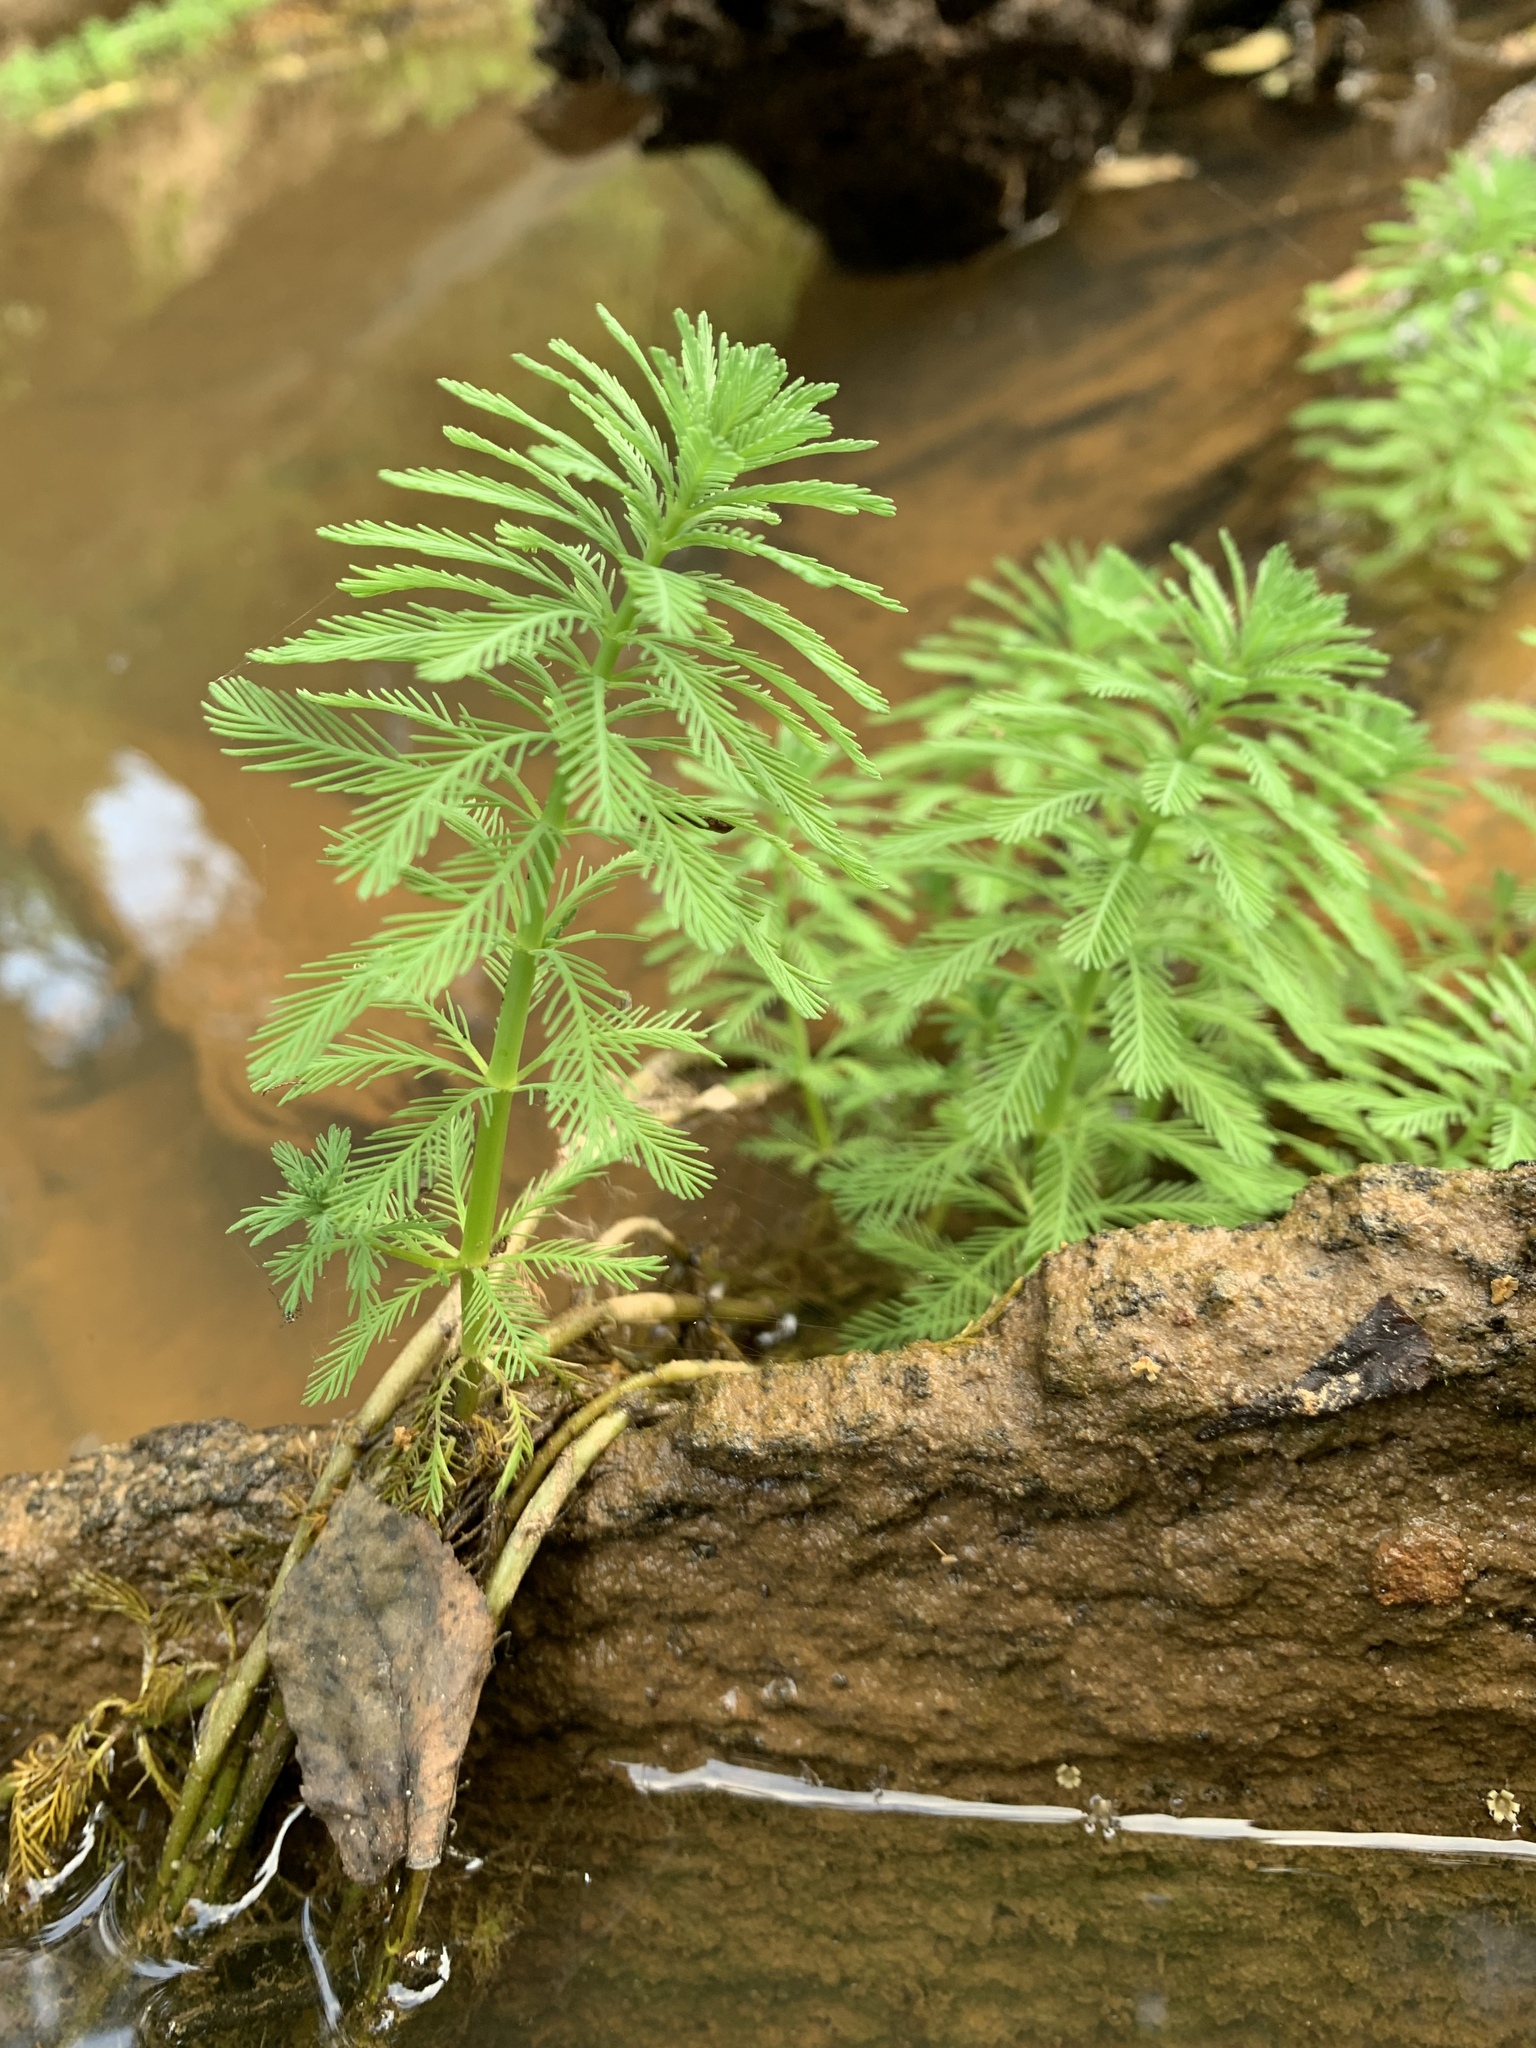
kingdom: Plantae
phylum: Tracheophyta
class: Magnoliopsida
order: Saxifragales
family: Haloragaceae
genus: Myriophyllum
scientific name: Myriophyllum aquaticum
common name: Parrot's feather
